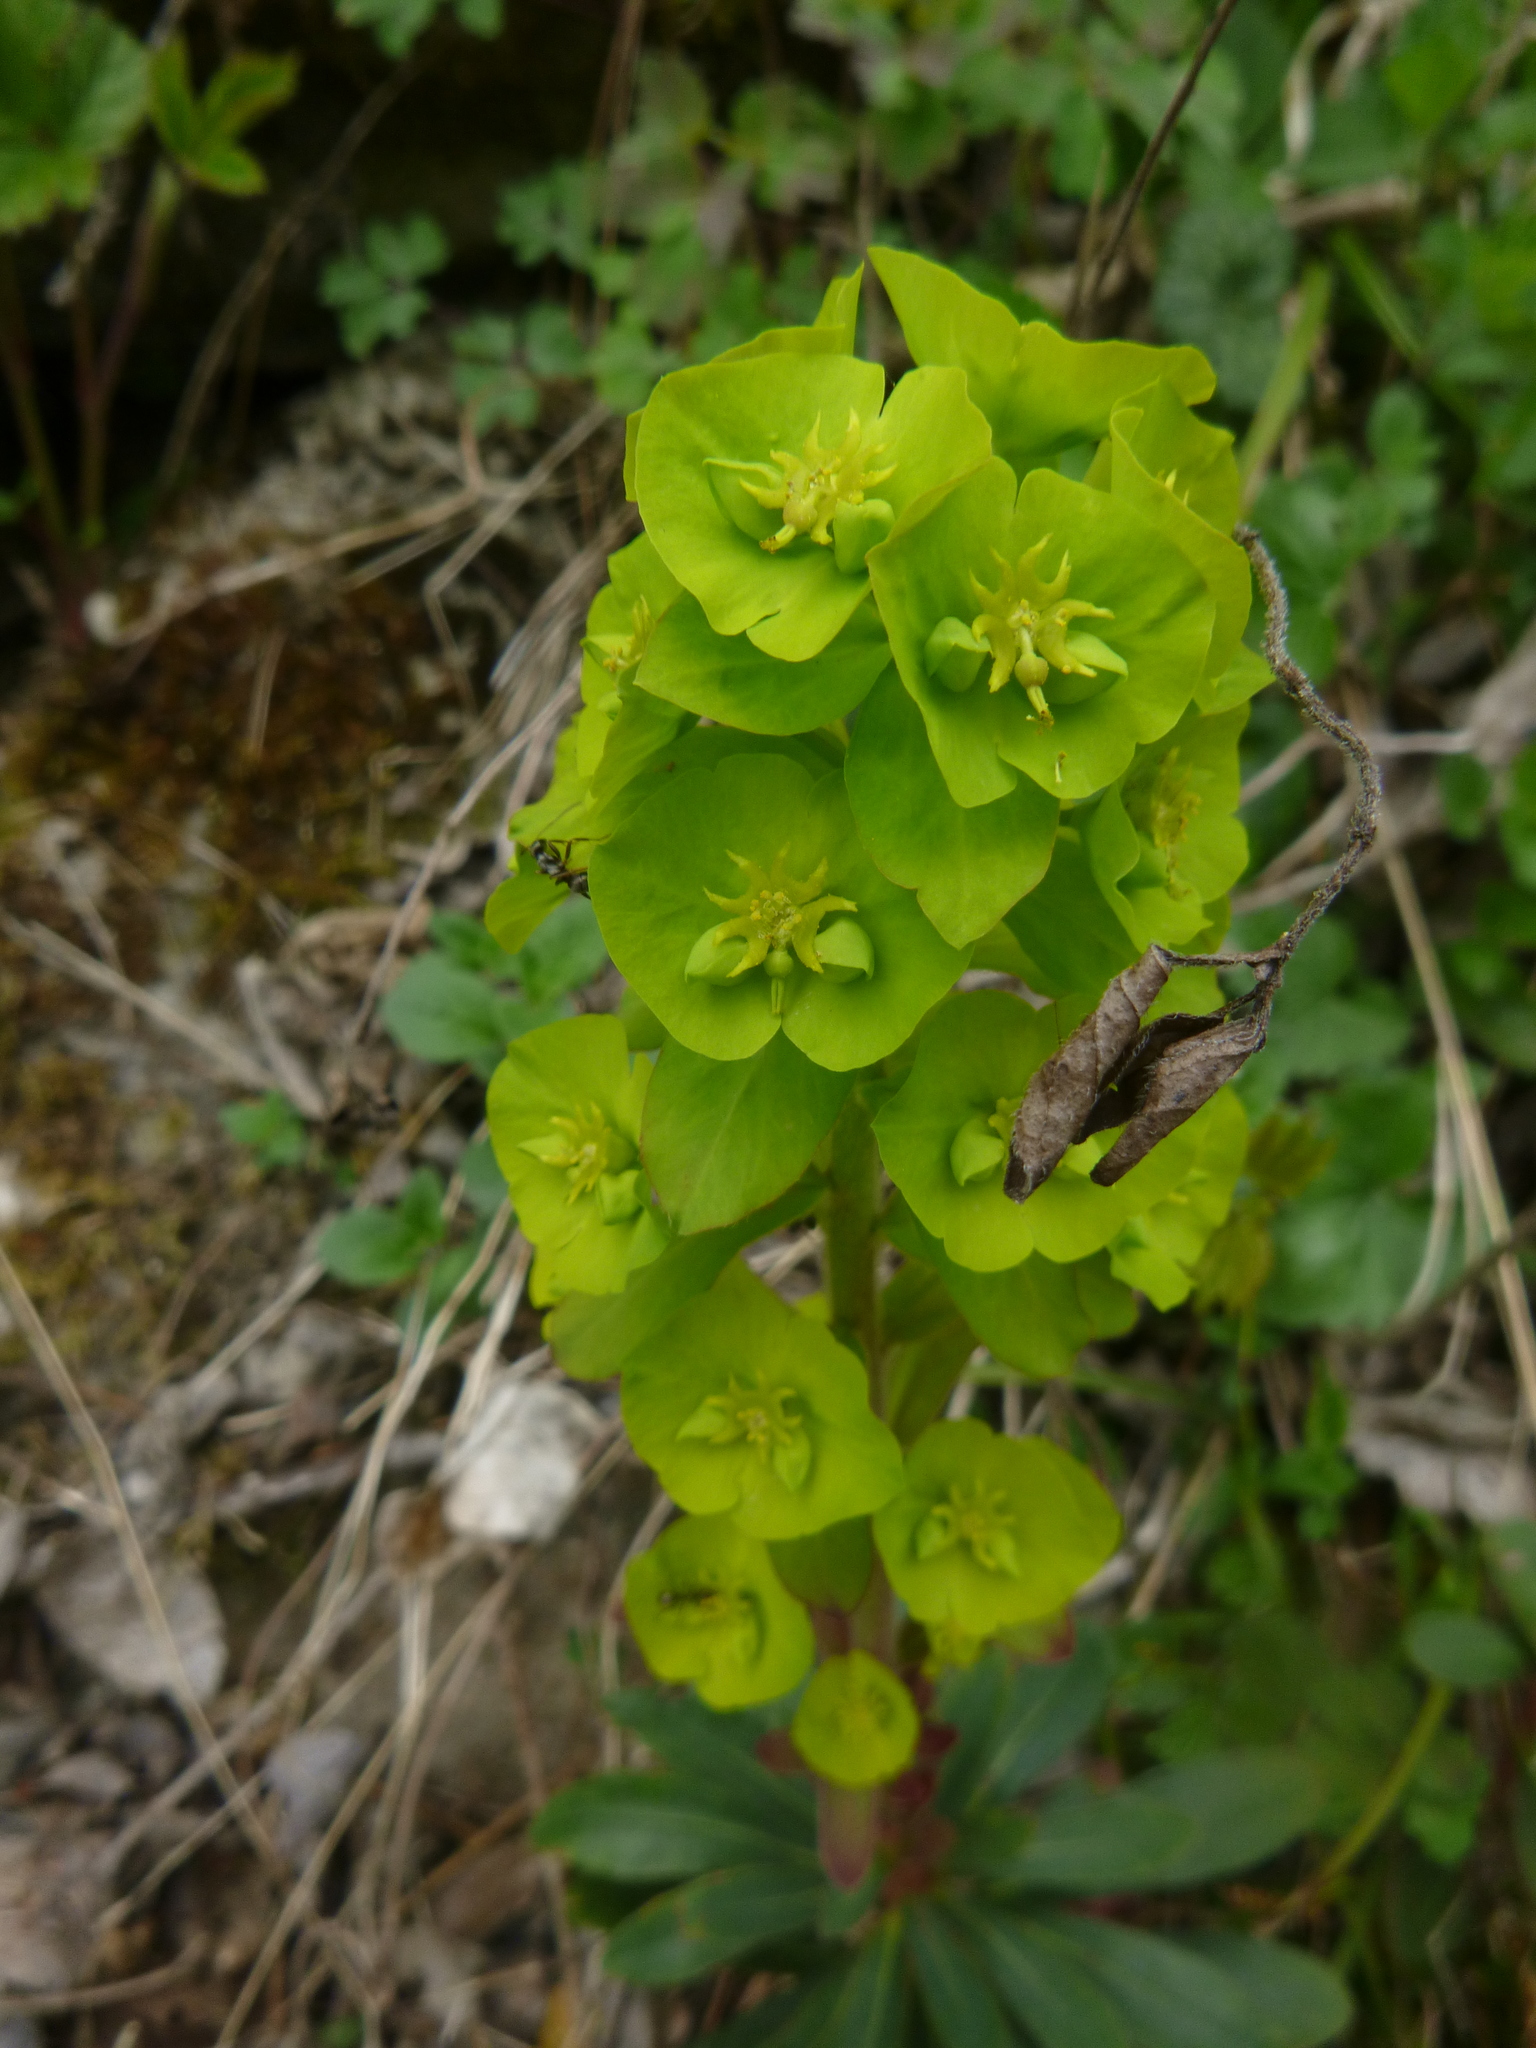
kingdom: Plantae
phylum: Tracheophyta
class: Magnoliopsida
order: Malpighiales
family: Euphorbiaceae
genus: Euphorbia
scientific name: Euphorbia amygdaloides
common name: Wood spurge
